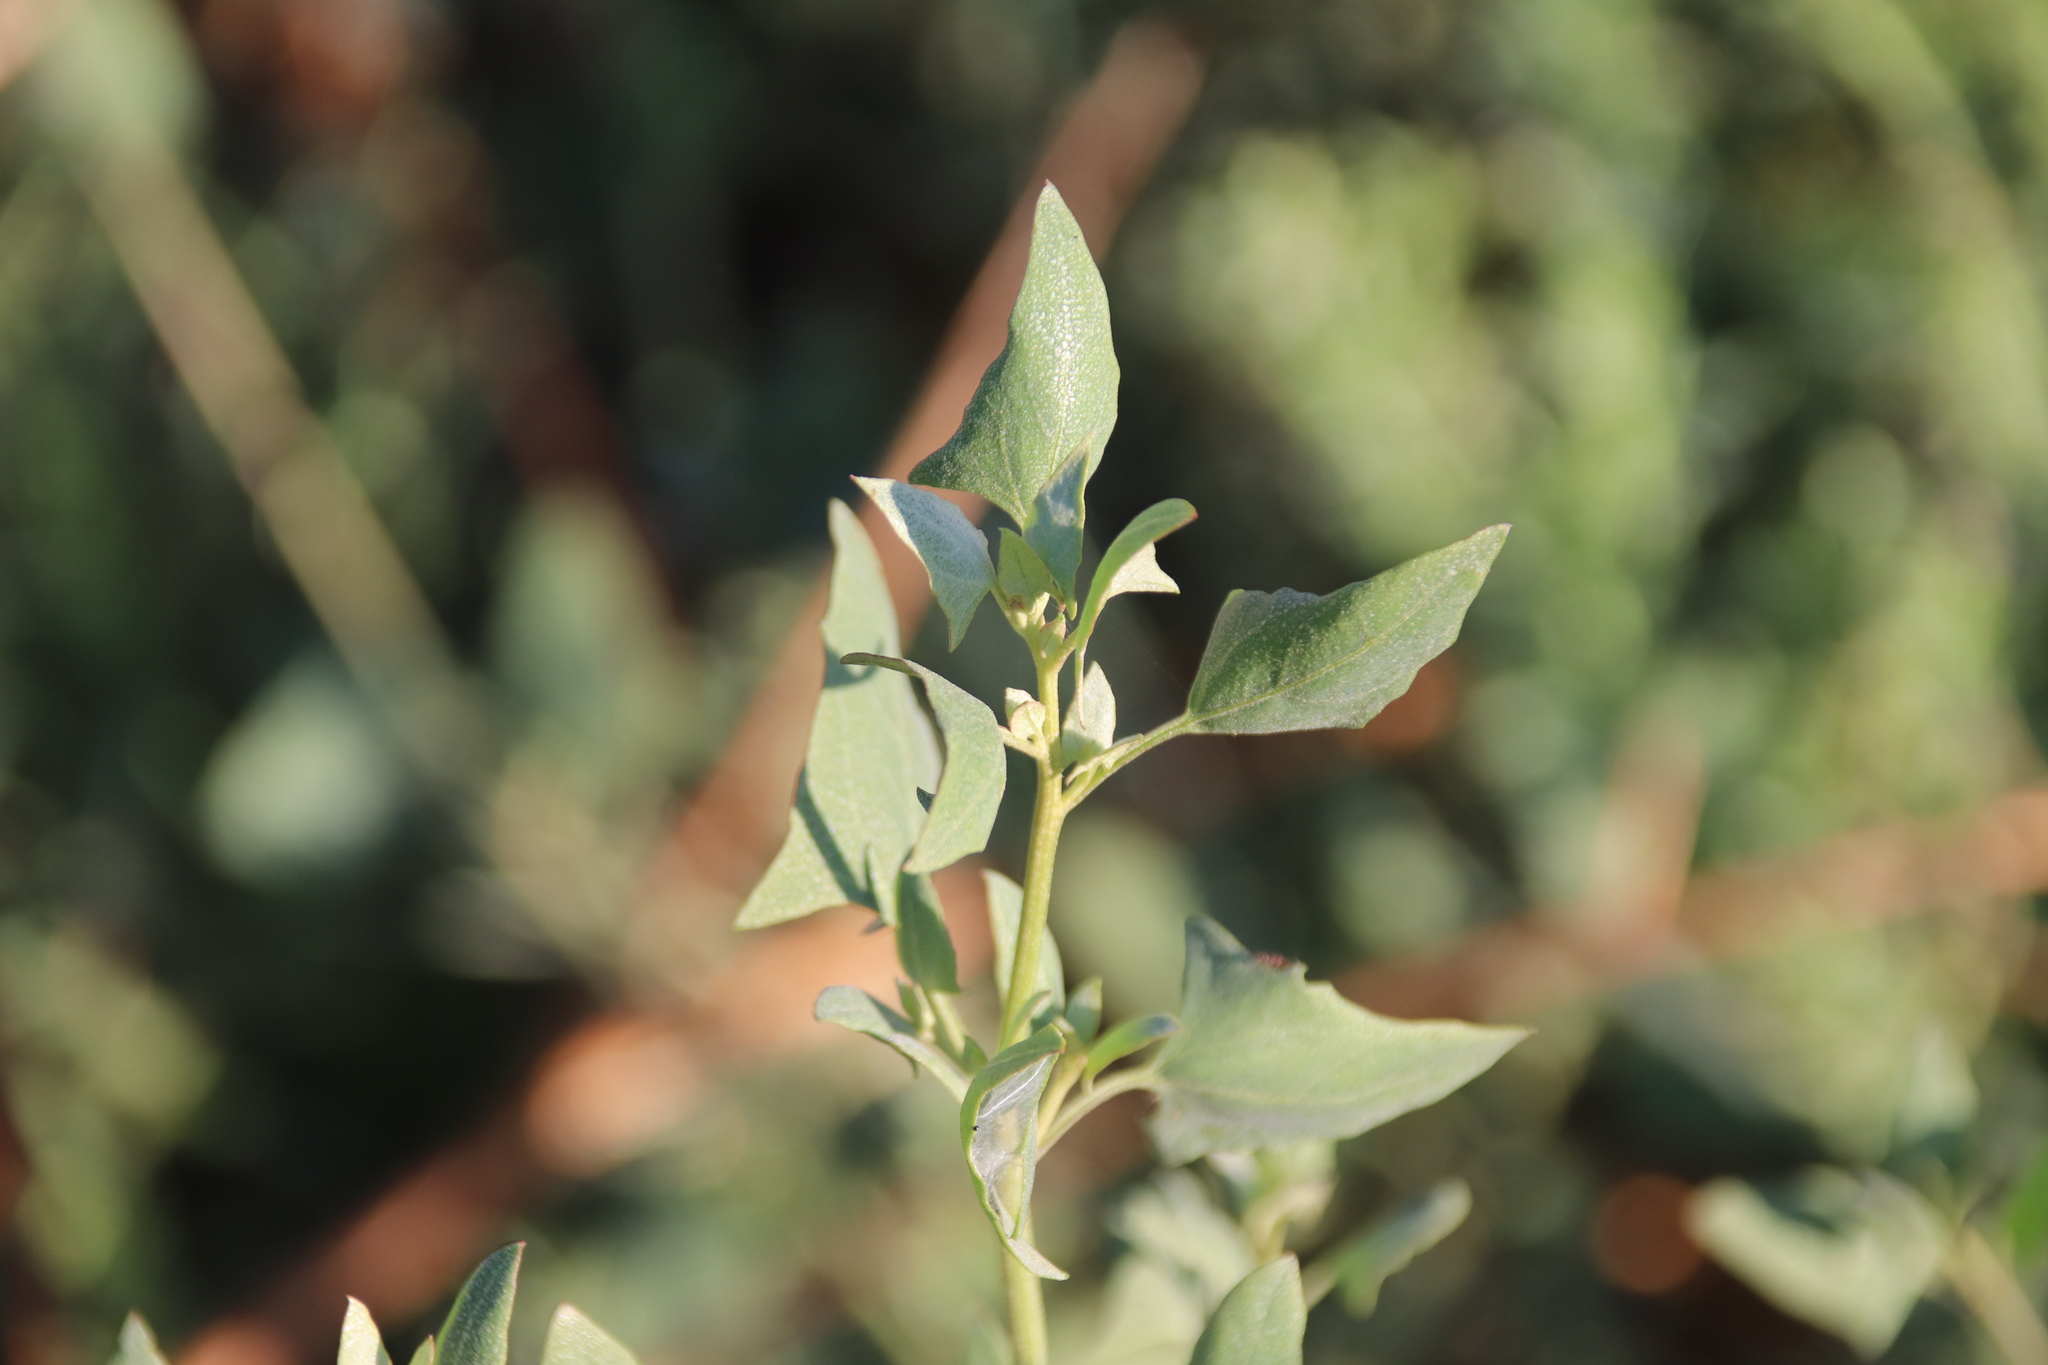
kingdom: Plantae
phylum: Tracheophyta
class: Magnoliopsida
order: Caryophyllales
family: Amaranthaceae
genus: Atriplex
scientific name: Atriplex prostrata
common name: Spear-leaved orache
